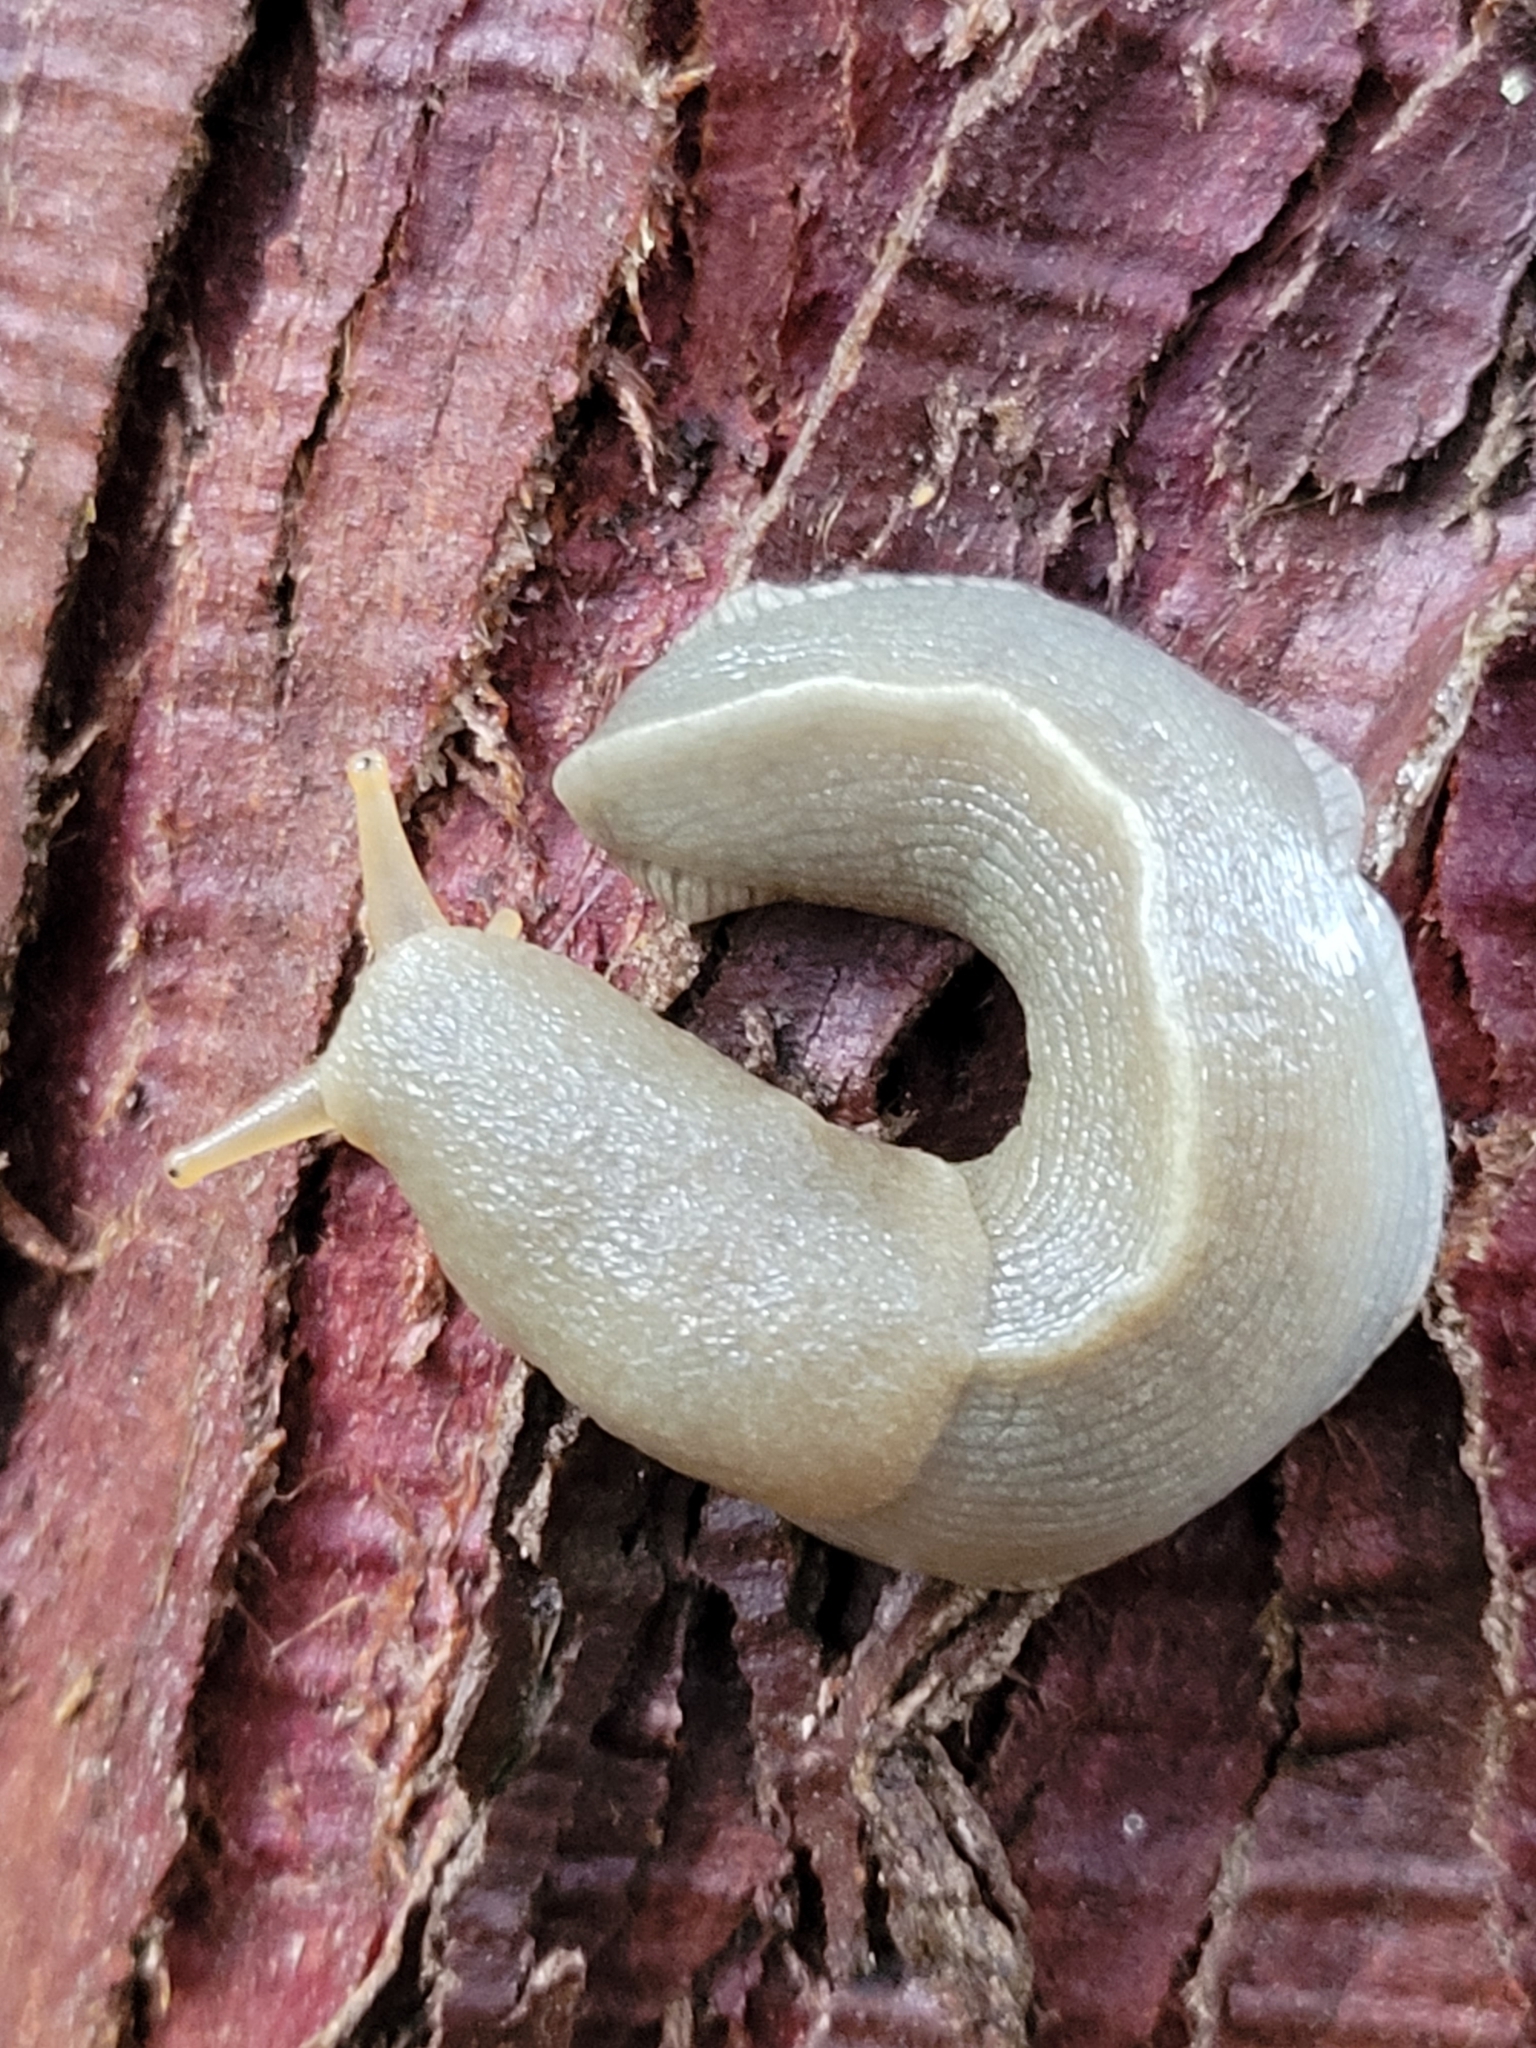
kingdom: Animalia
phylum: Mollusca
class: Gastropoda
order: Stylommatophora
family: Ariolimacidae
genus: Ariolimax
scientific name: Ariolimax columbianus
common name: Pacific banana slug
